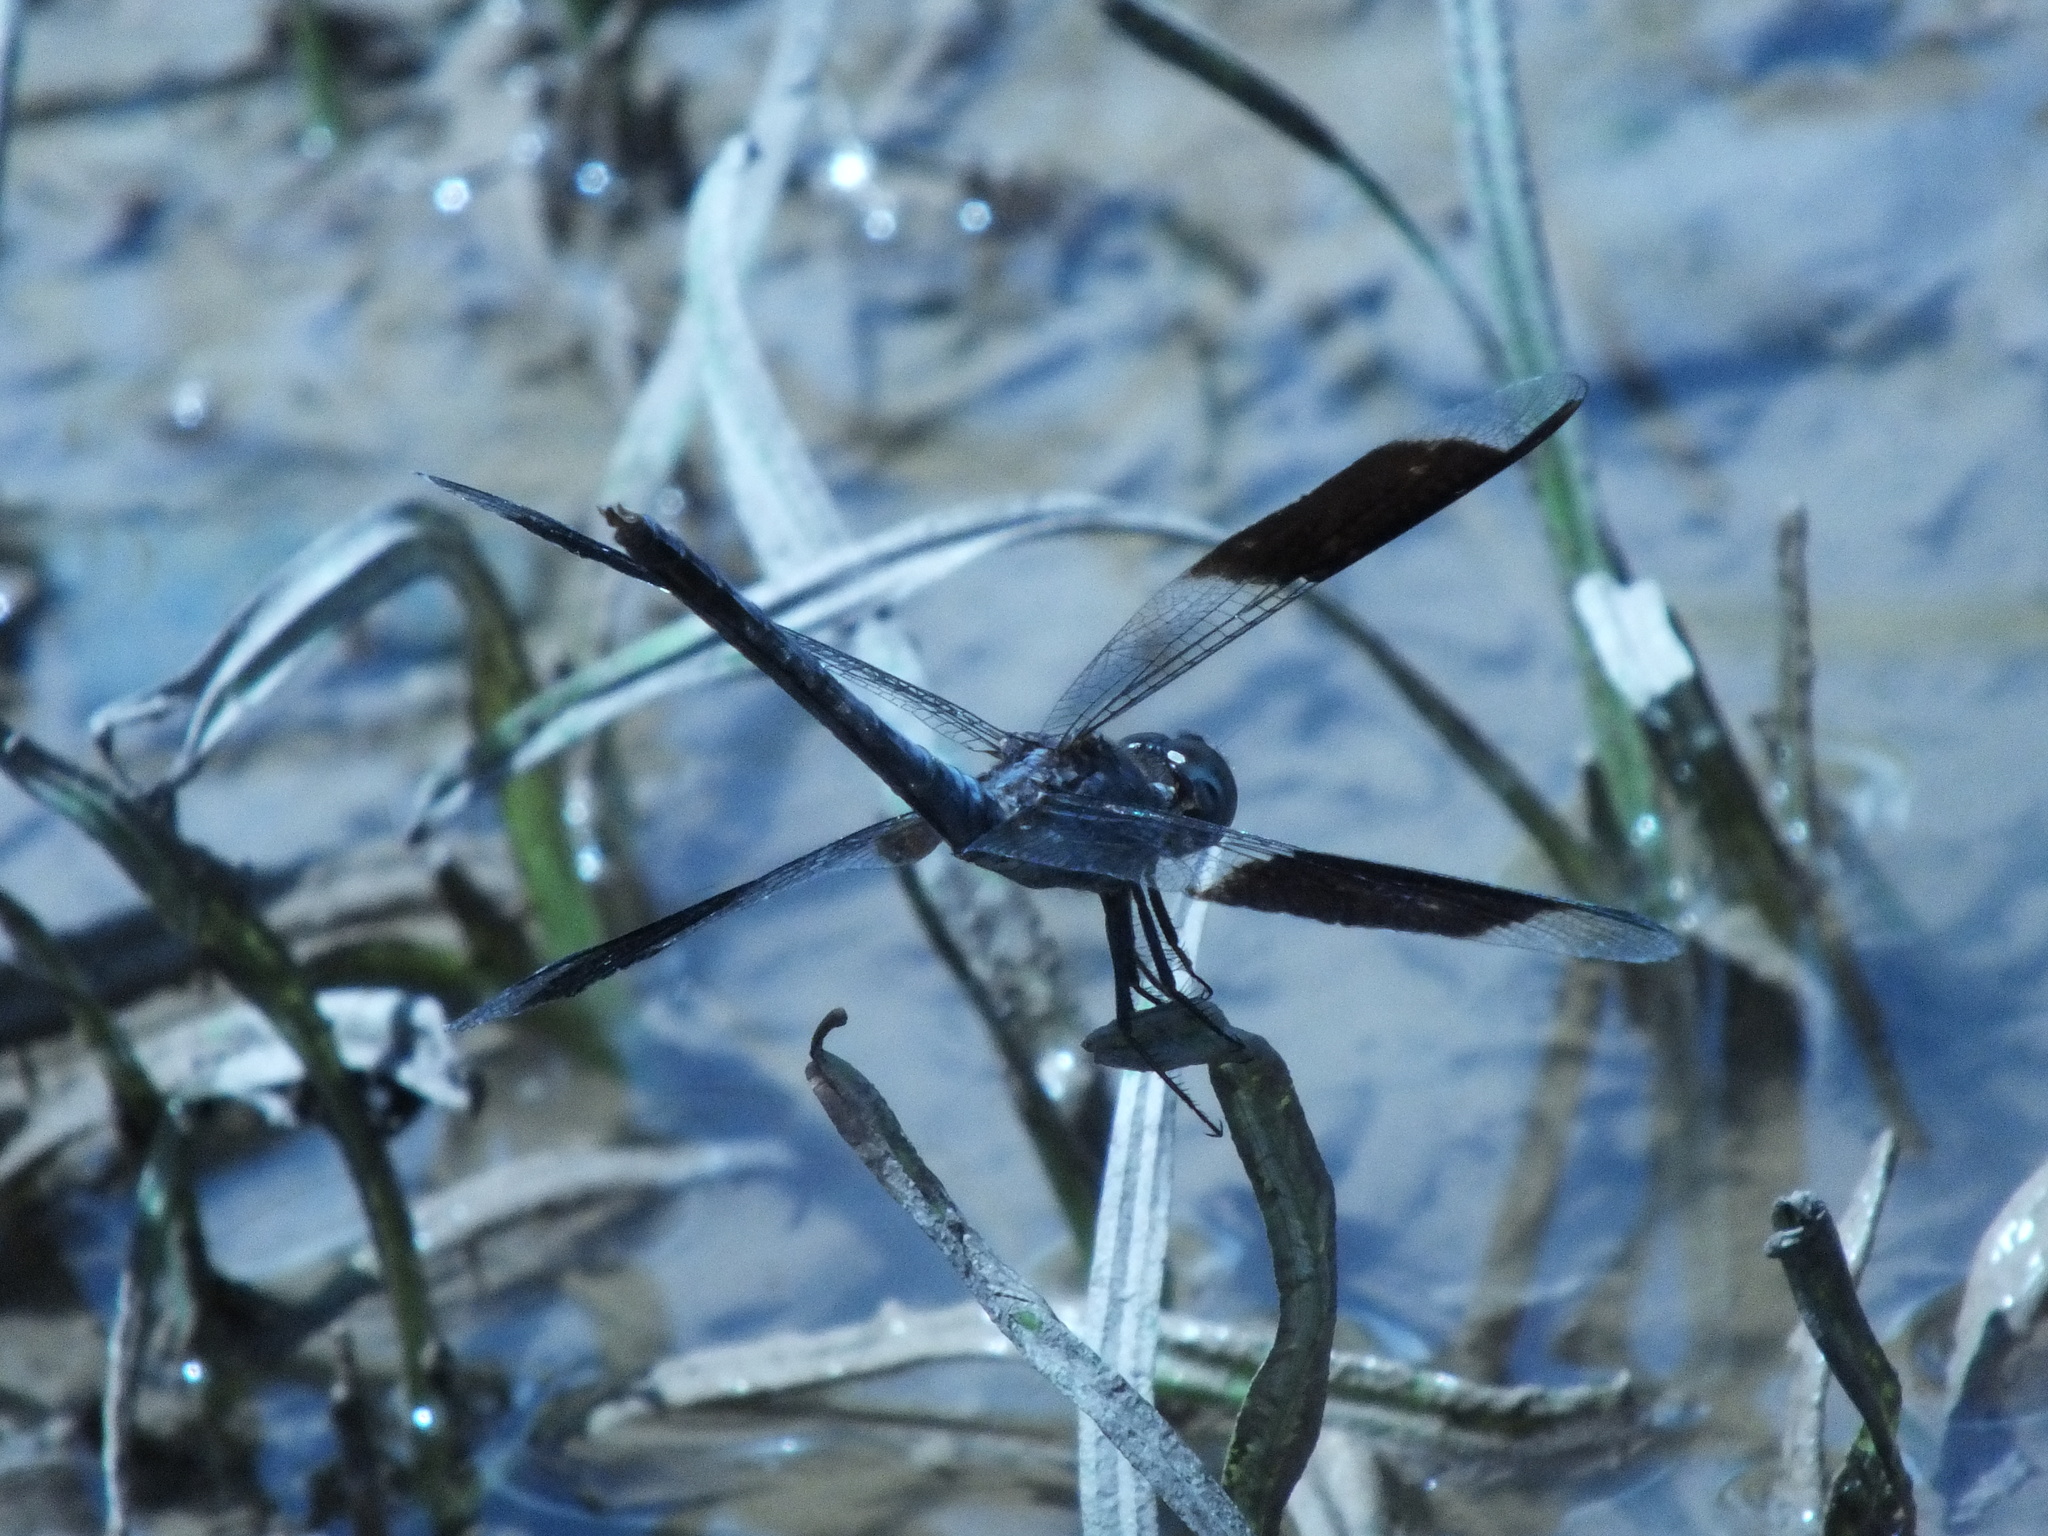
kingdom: Animalia
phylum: Arthropoda
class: Insecta
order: Odonata
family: Libellulidae
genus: Erythrodiplax
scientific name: Erythrodiplax umbrata
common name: Band-winged dragonlet
